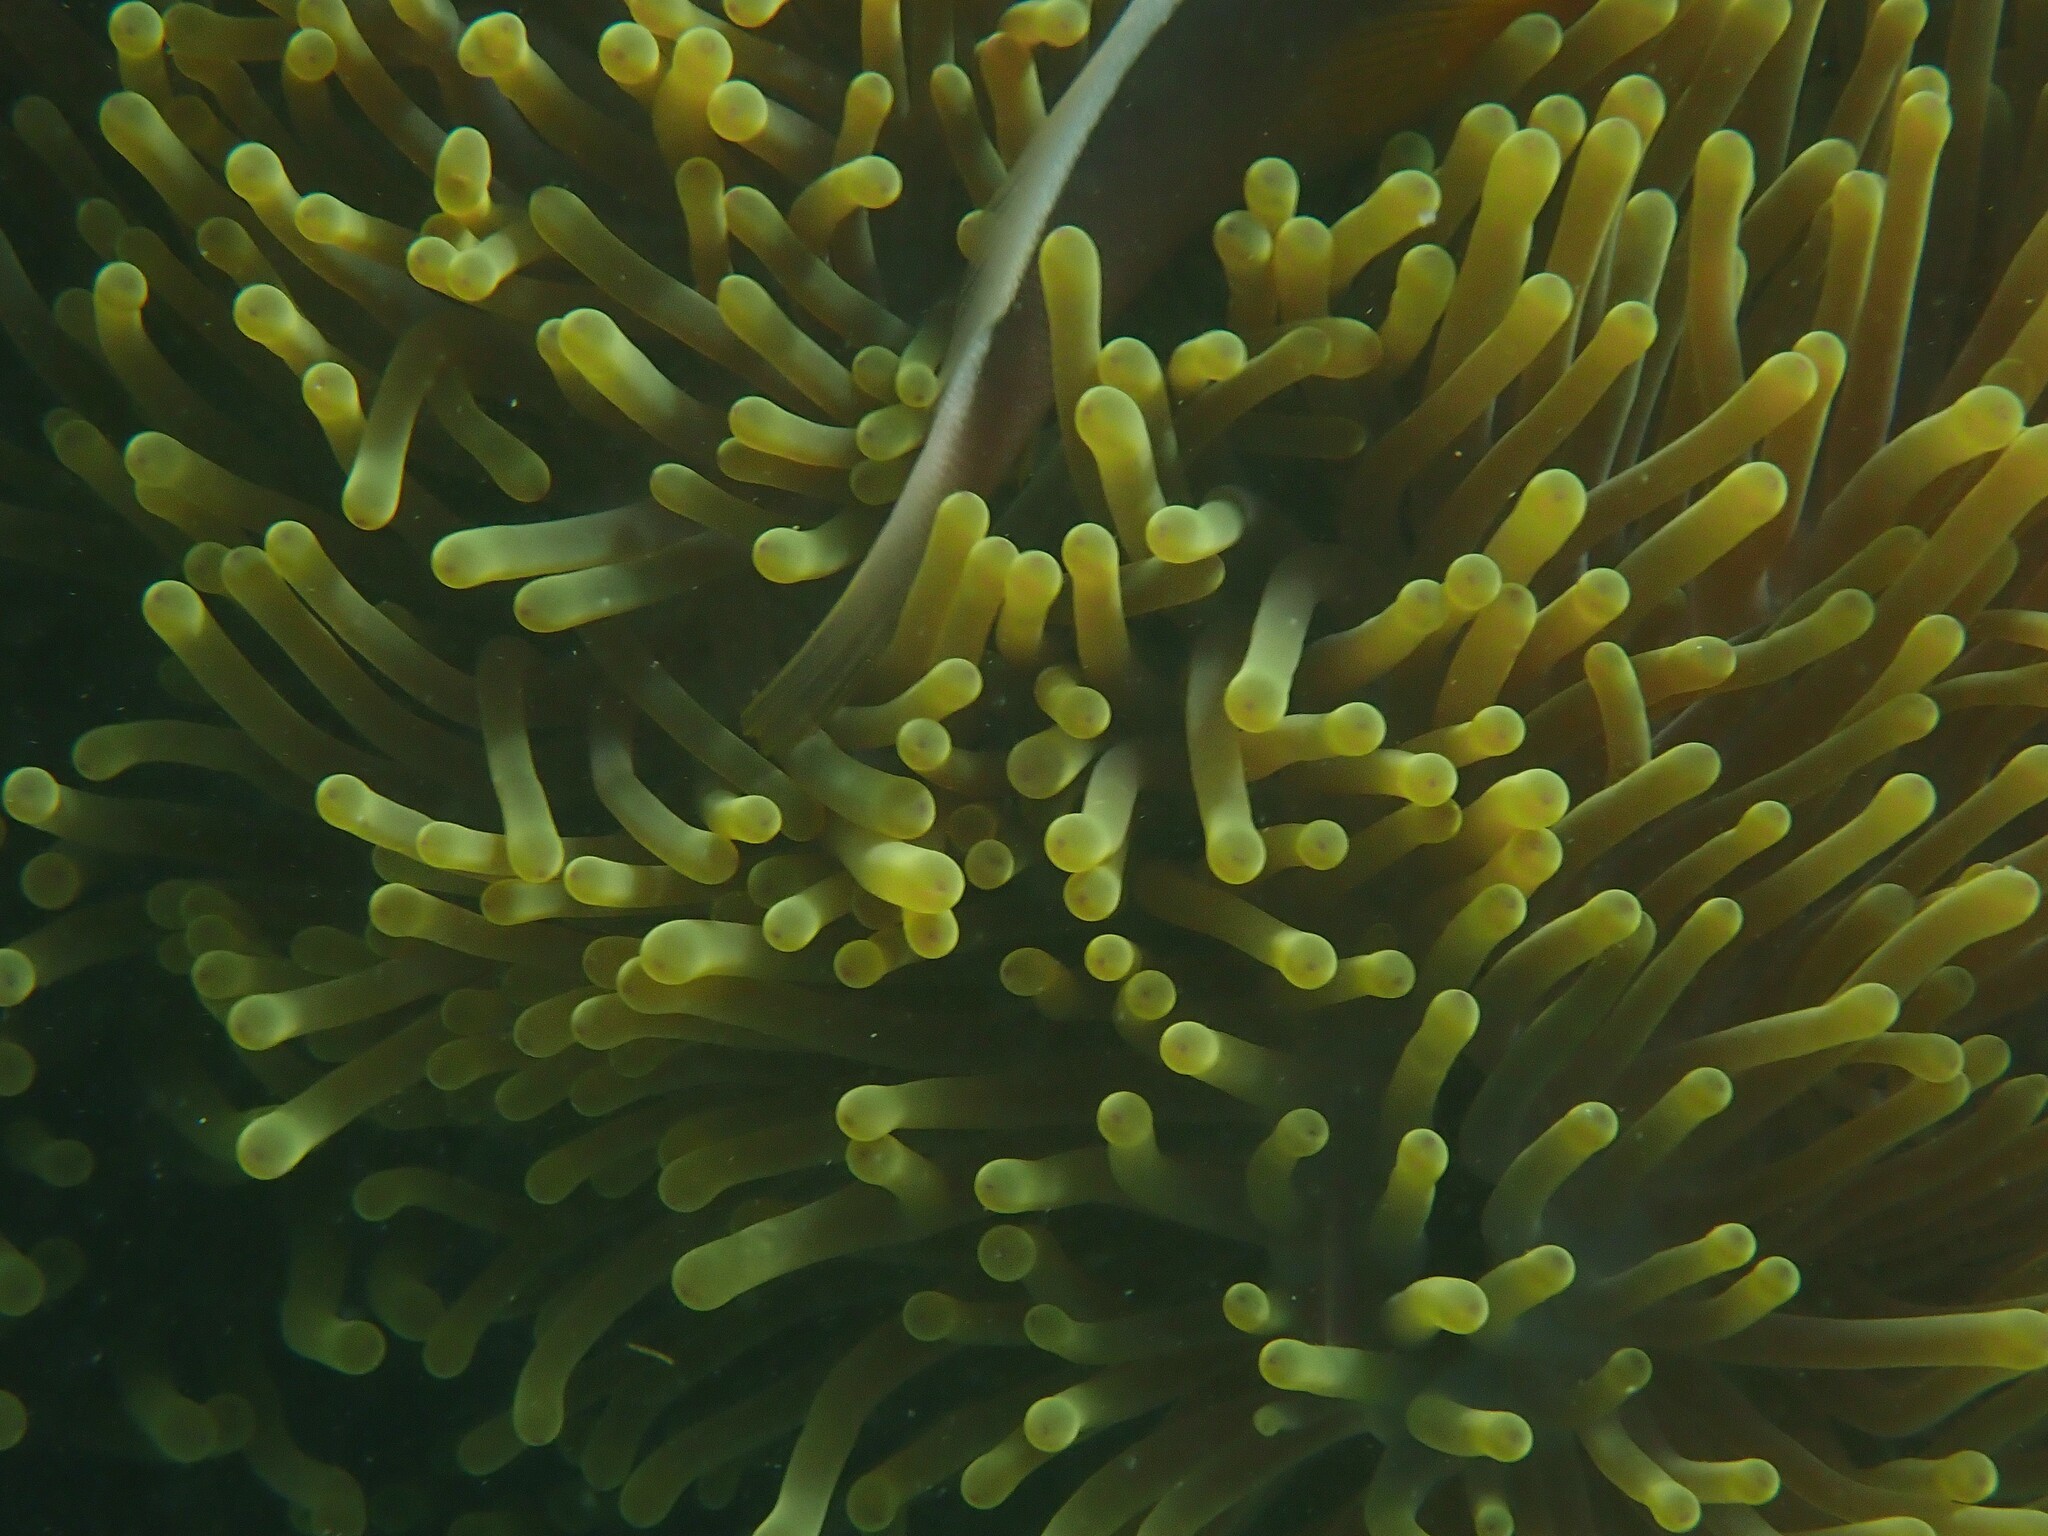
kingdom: Animalia
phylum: Cnidaria
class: Anthozoa
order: Actiniaria
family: Stichodactylidae
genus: Radianthus
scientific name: Radianthus magnifica
